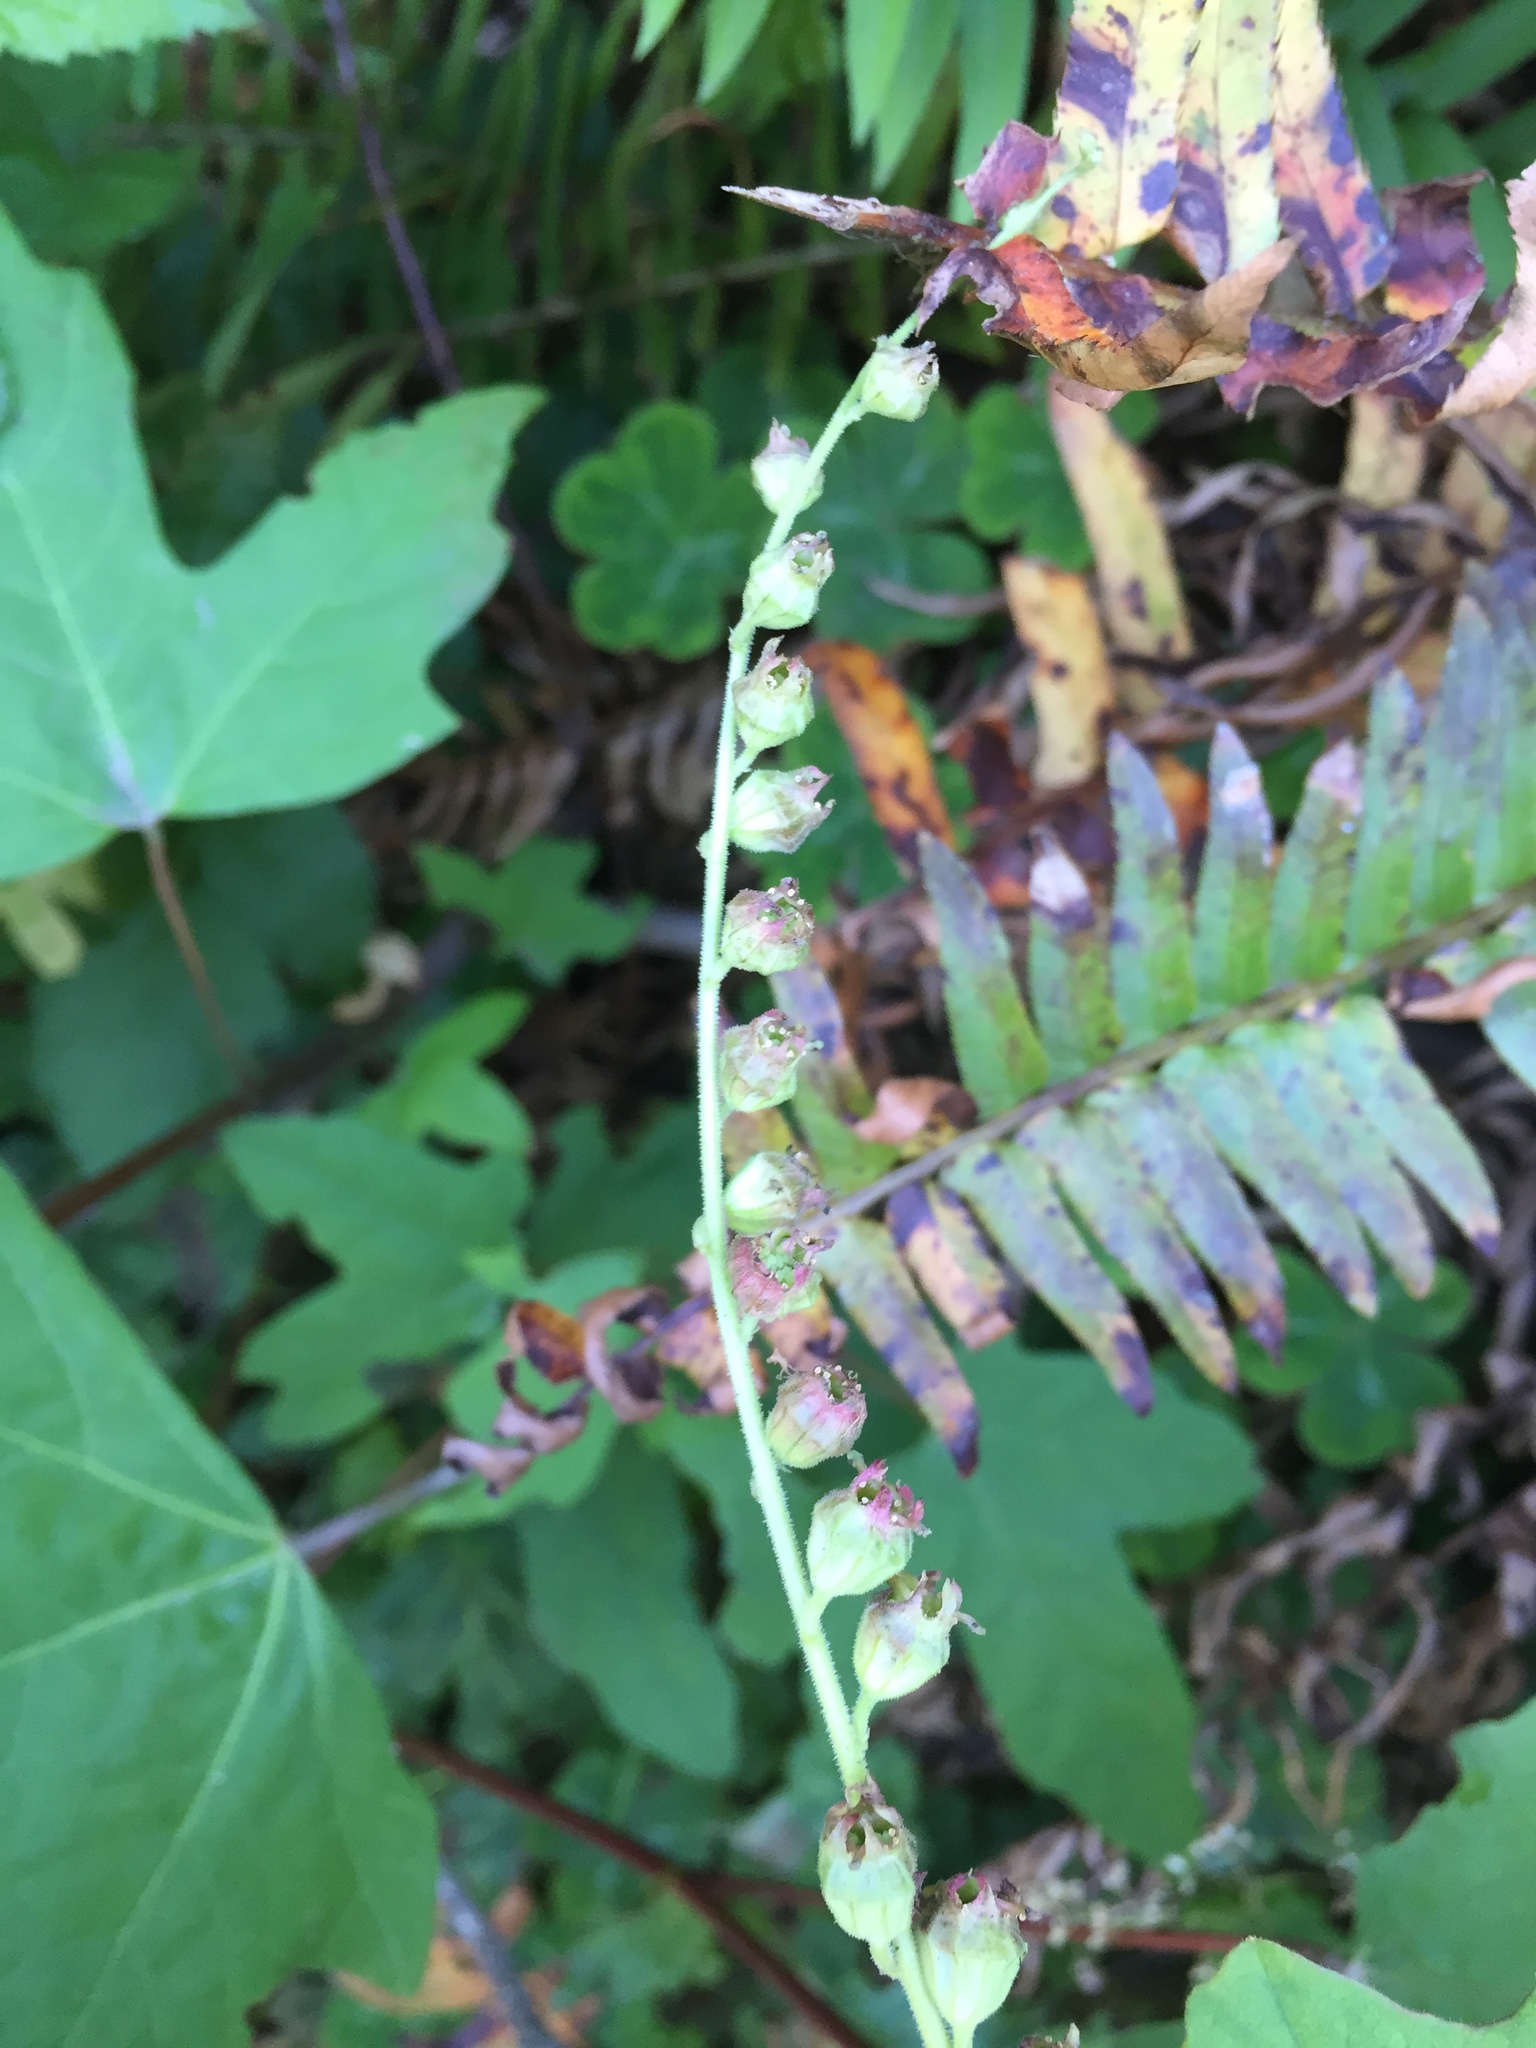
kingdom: Plantae
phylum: Tracheophyta
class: Magnoliopsida
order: Saxifragales
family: Saxifragaceae
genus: Tellima
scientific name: Tellima grandiflora
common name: Fringecups
